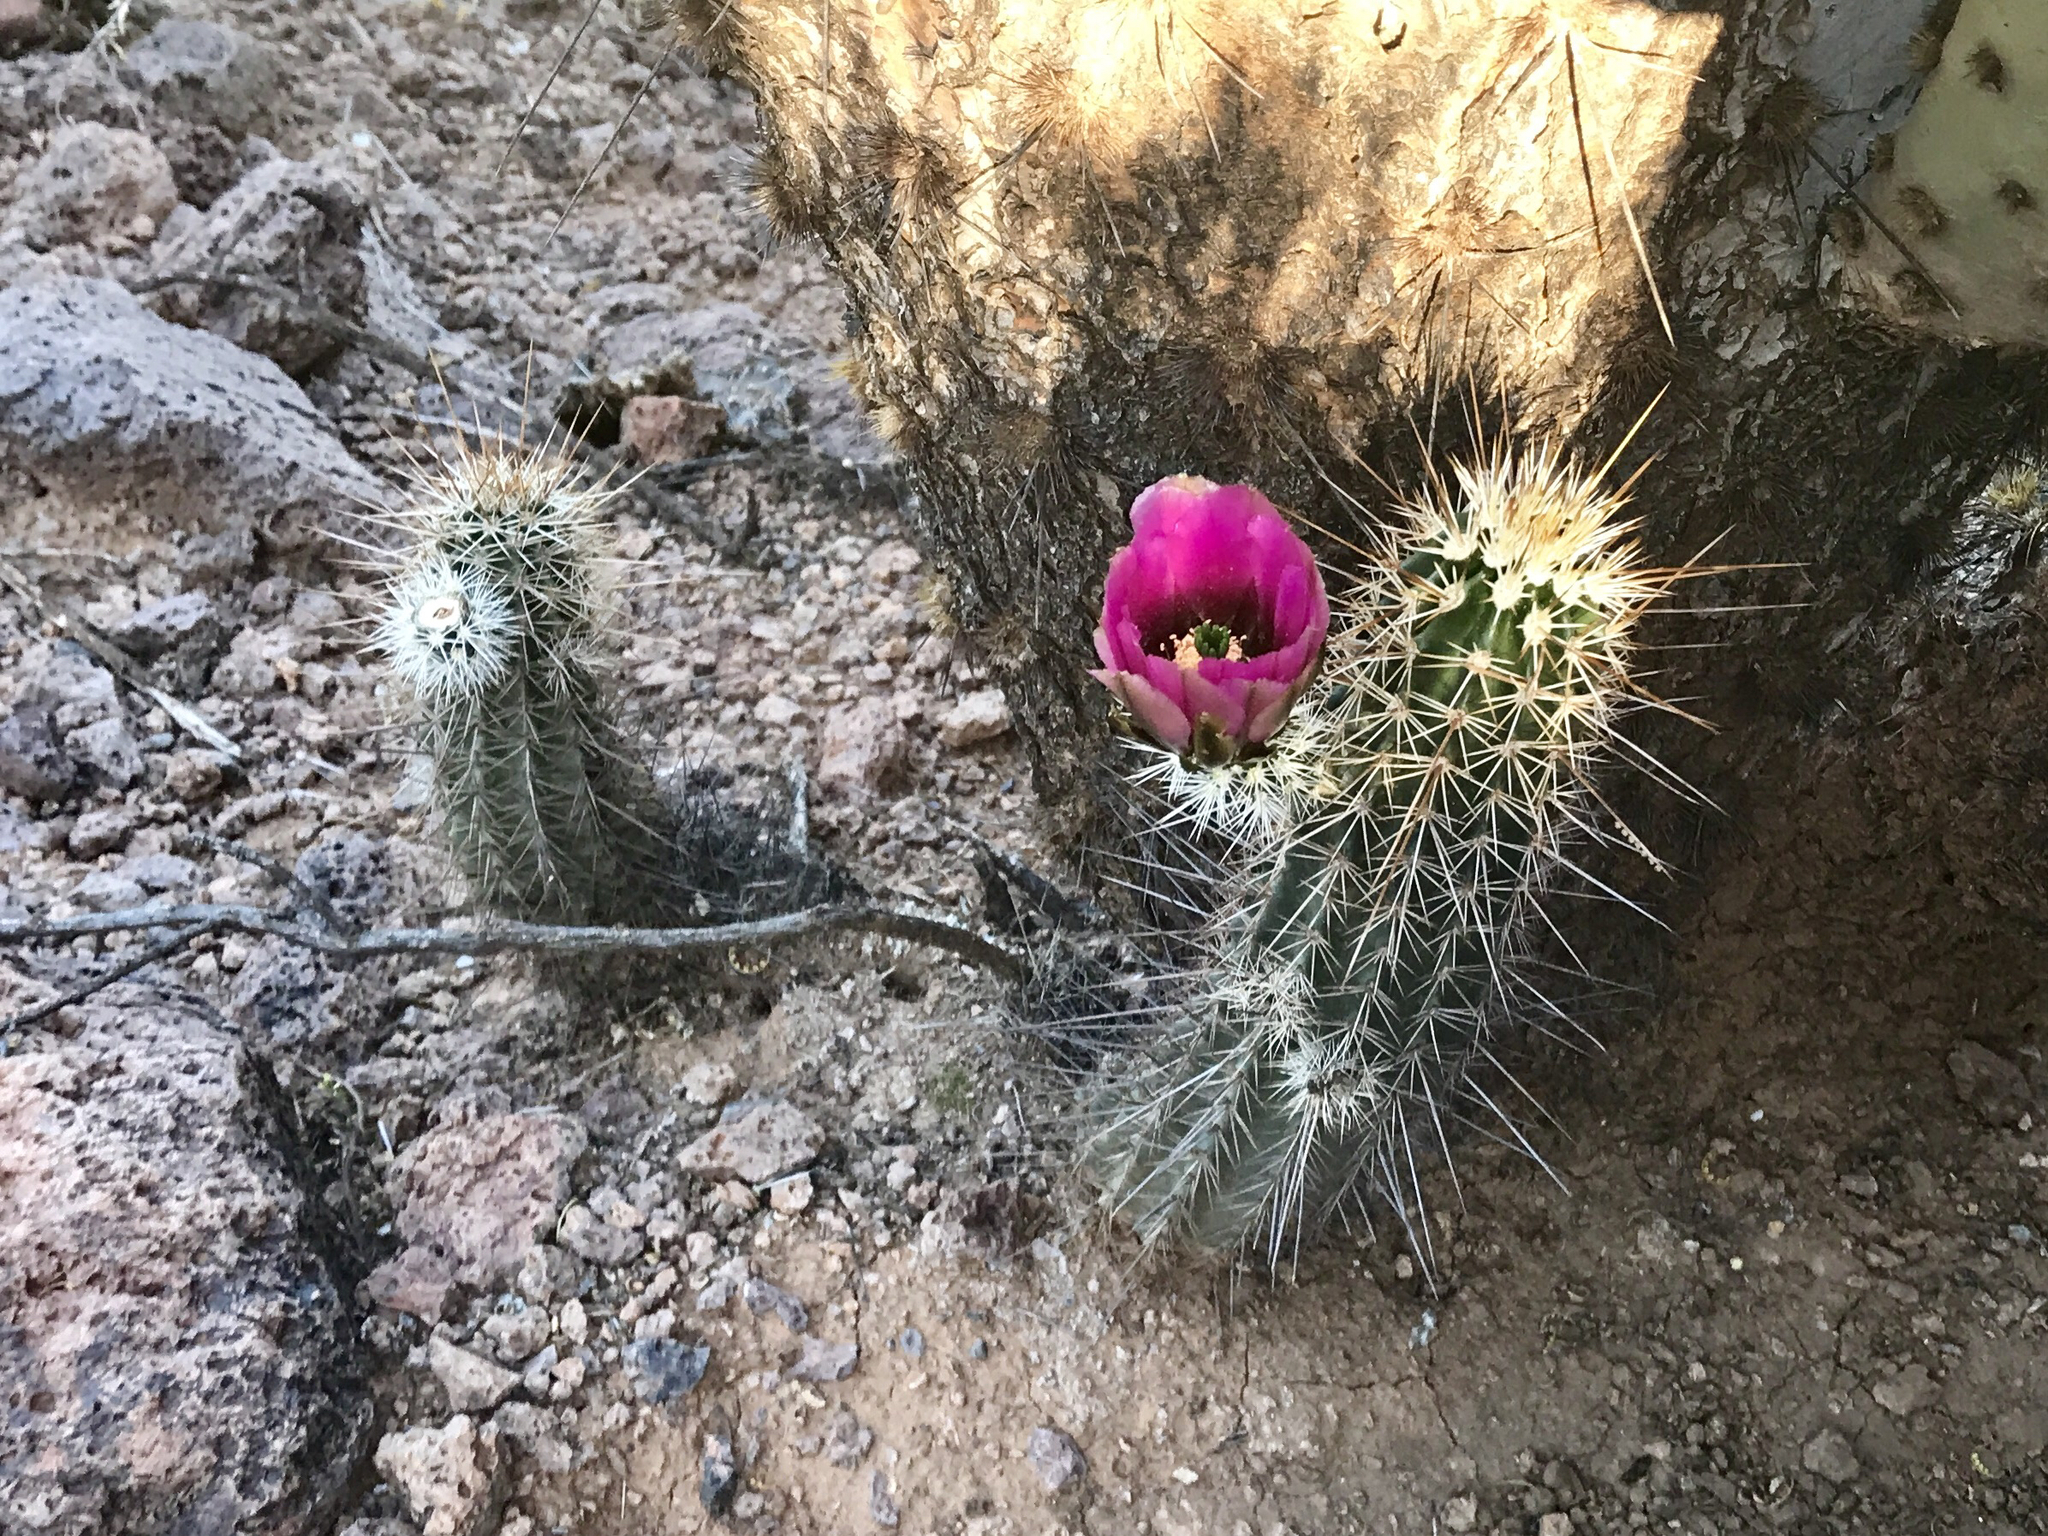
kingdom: Plantae
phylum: Tracheophyta
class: Magnoliopsida
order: Caryophyllales
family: Cactaceae
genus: Echinocereus
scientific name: Echinocereus fasciculatus
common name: Bundle hedgehog
